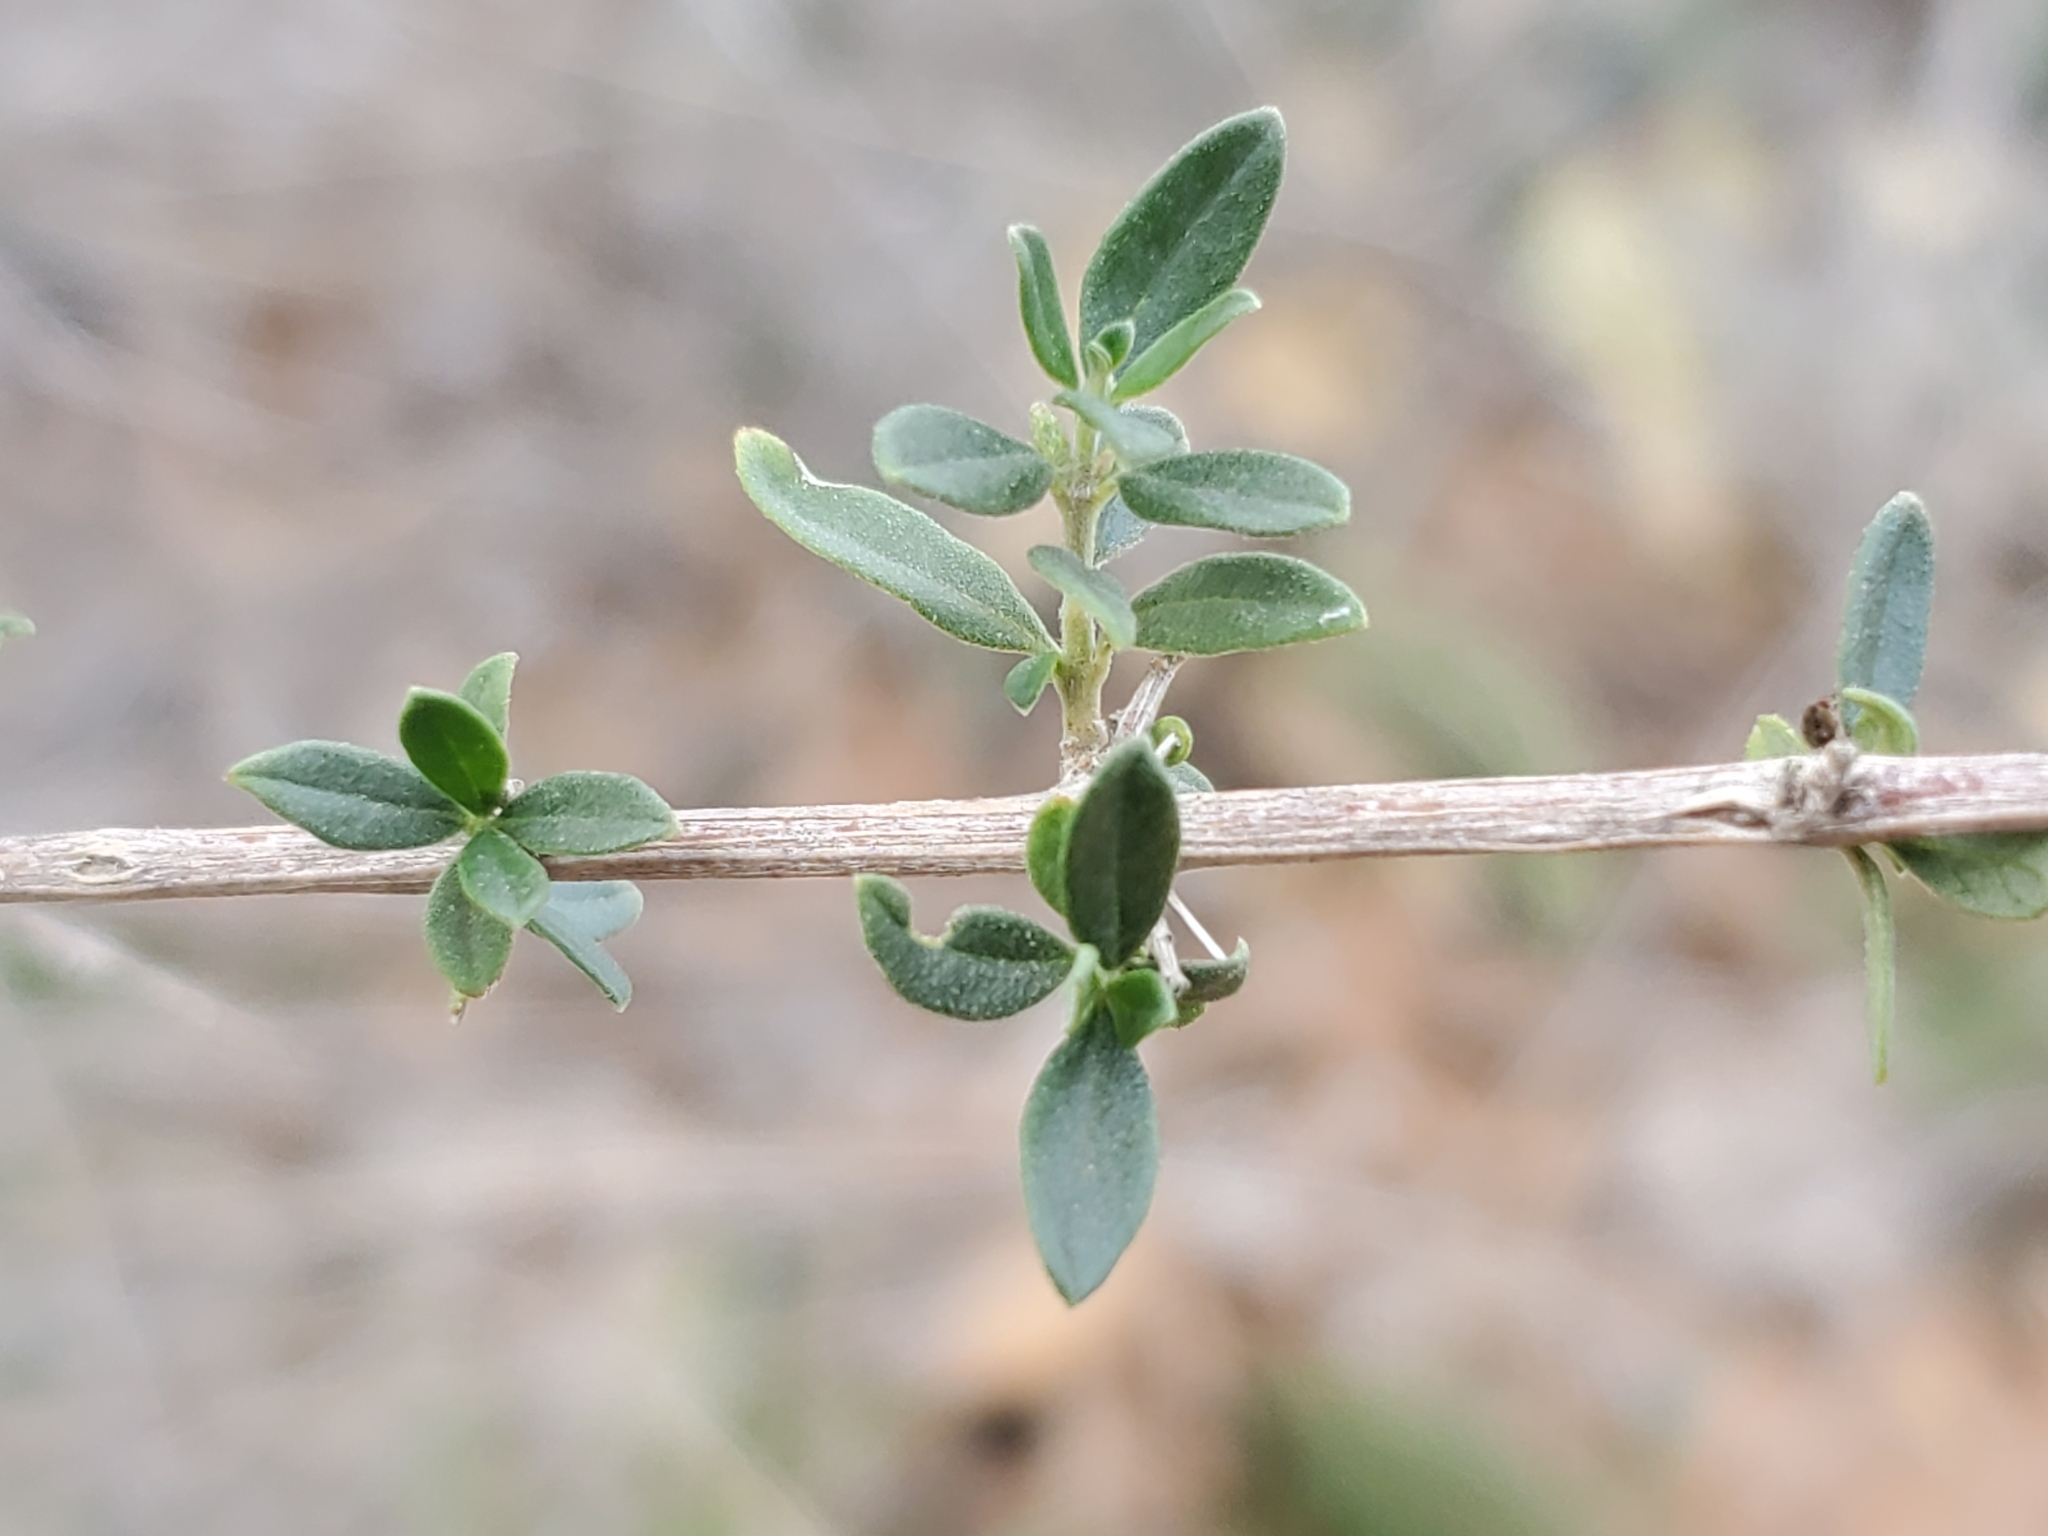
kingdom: Plantae
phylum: Tracheophyta
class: Magnoliopsida
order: Lamiales
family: Verbenaceae
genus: Aloysia
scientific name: Aloysia gratissima
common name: Common bee-brush
